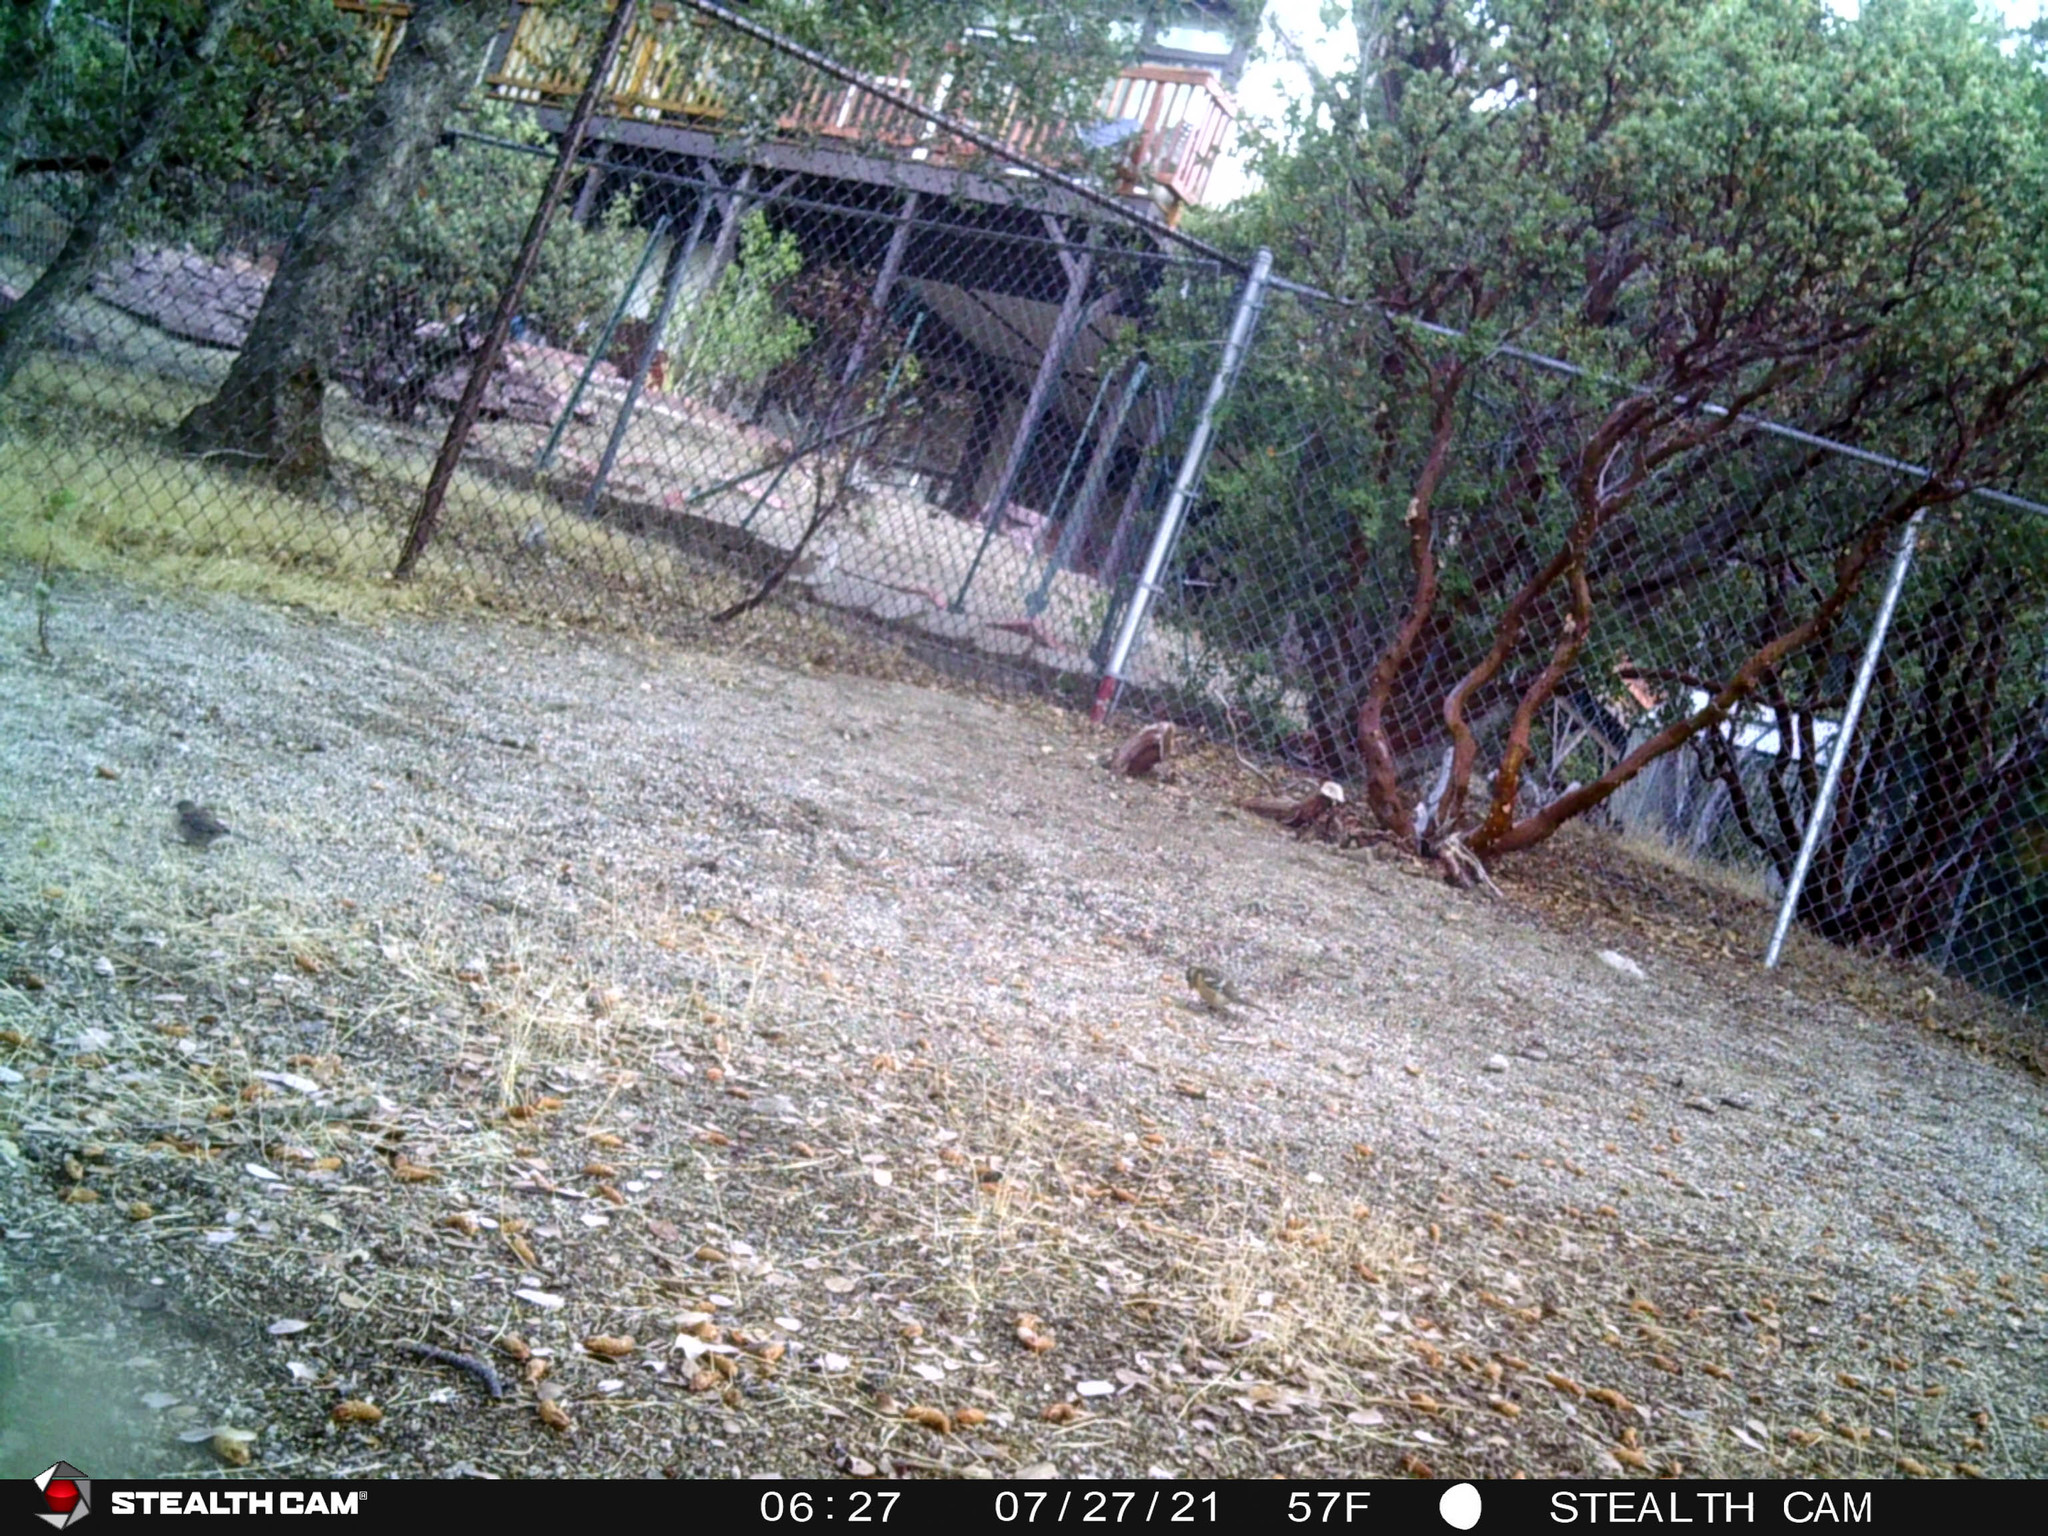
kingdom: Animalia
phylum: Chordata
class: Aves
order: Passeriformes
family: Cardinalidae
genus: Pheucticus
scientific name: Pheucticus melanocephalus
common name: Black-headed grosbeak
